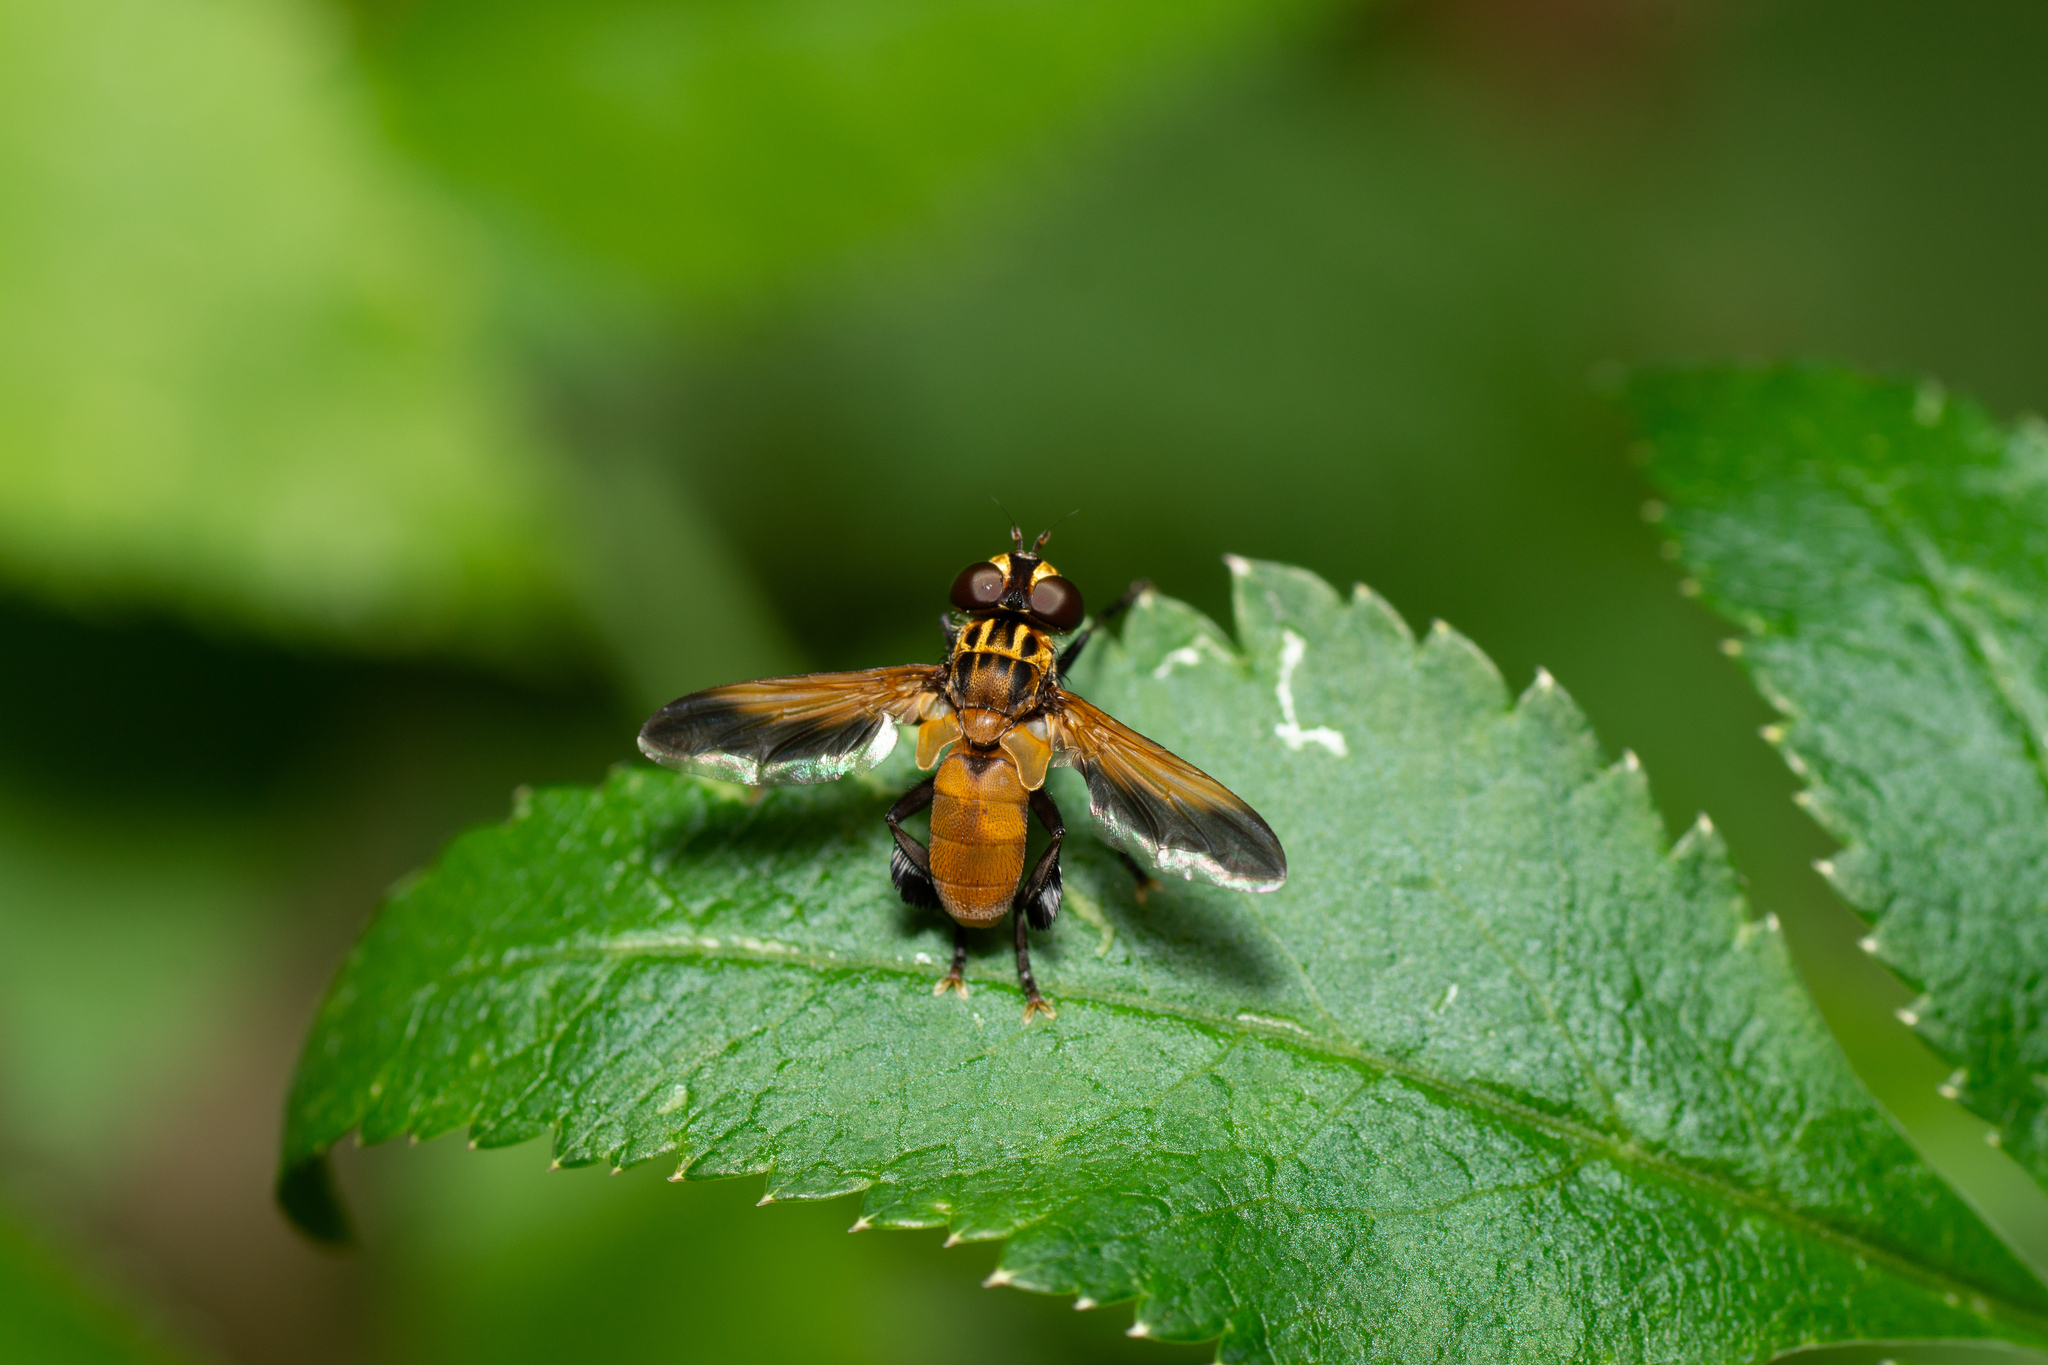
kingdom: Animalia
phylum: Arthropoda
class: Insecta
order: Diptera
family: Tachinidae
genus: Trichopoda
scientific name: Trichopoda pictipennis
